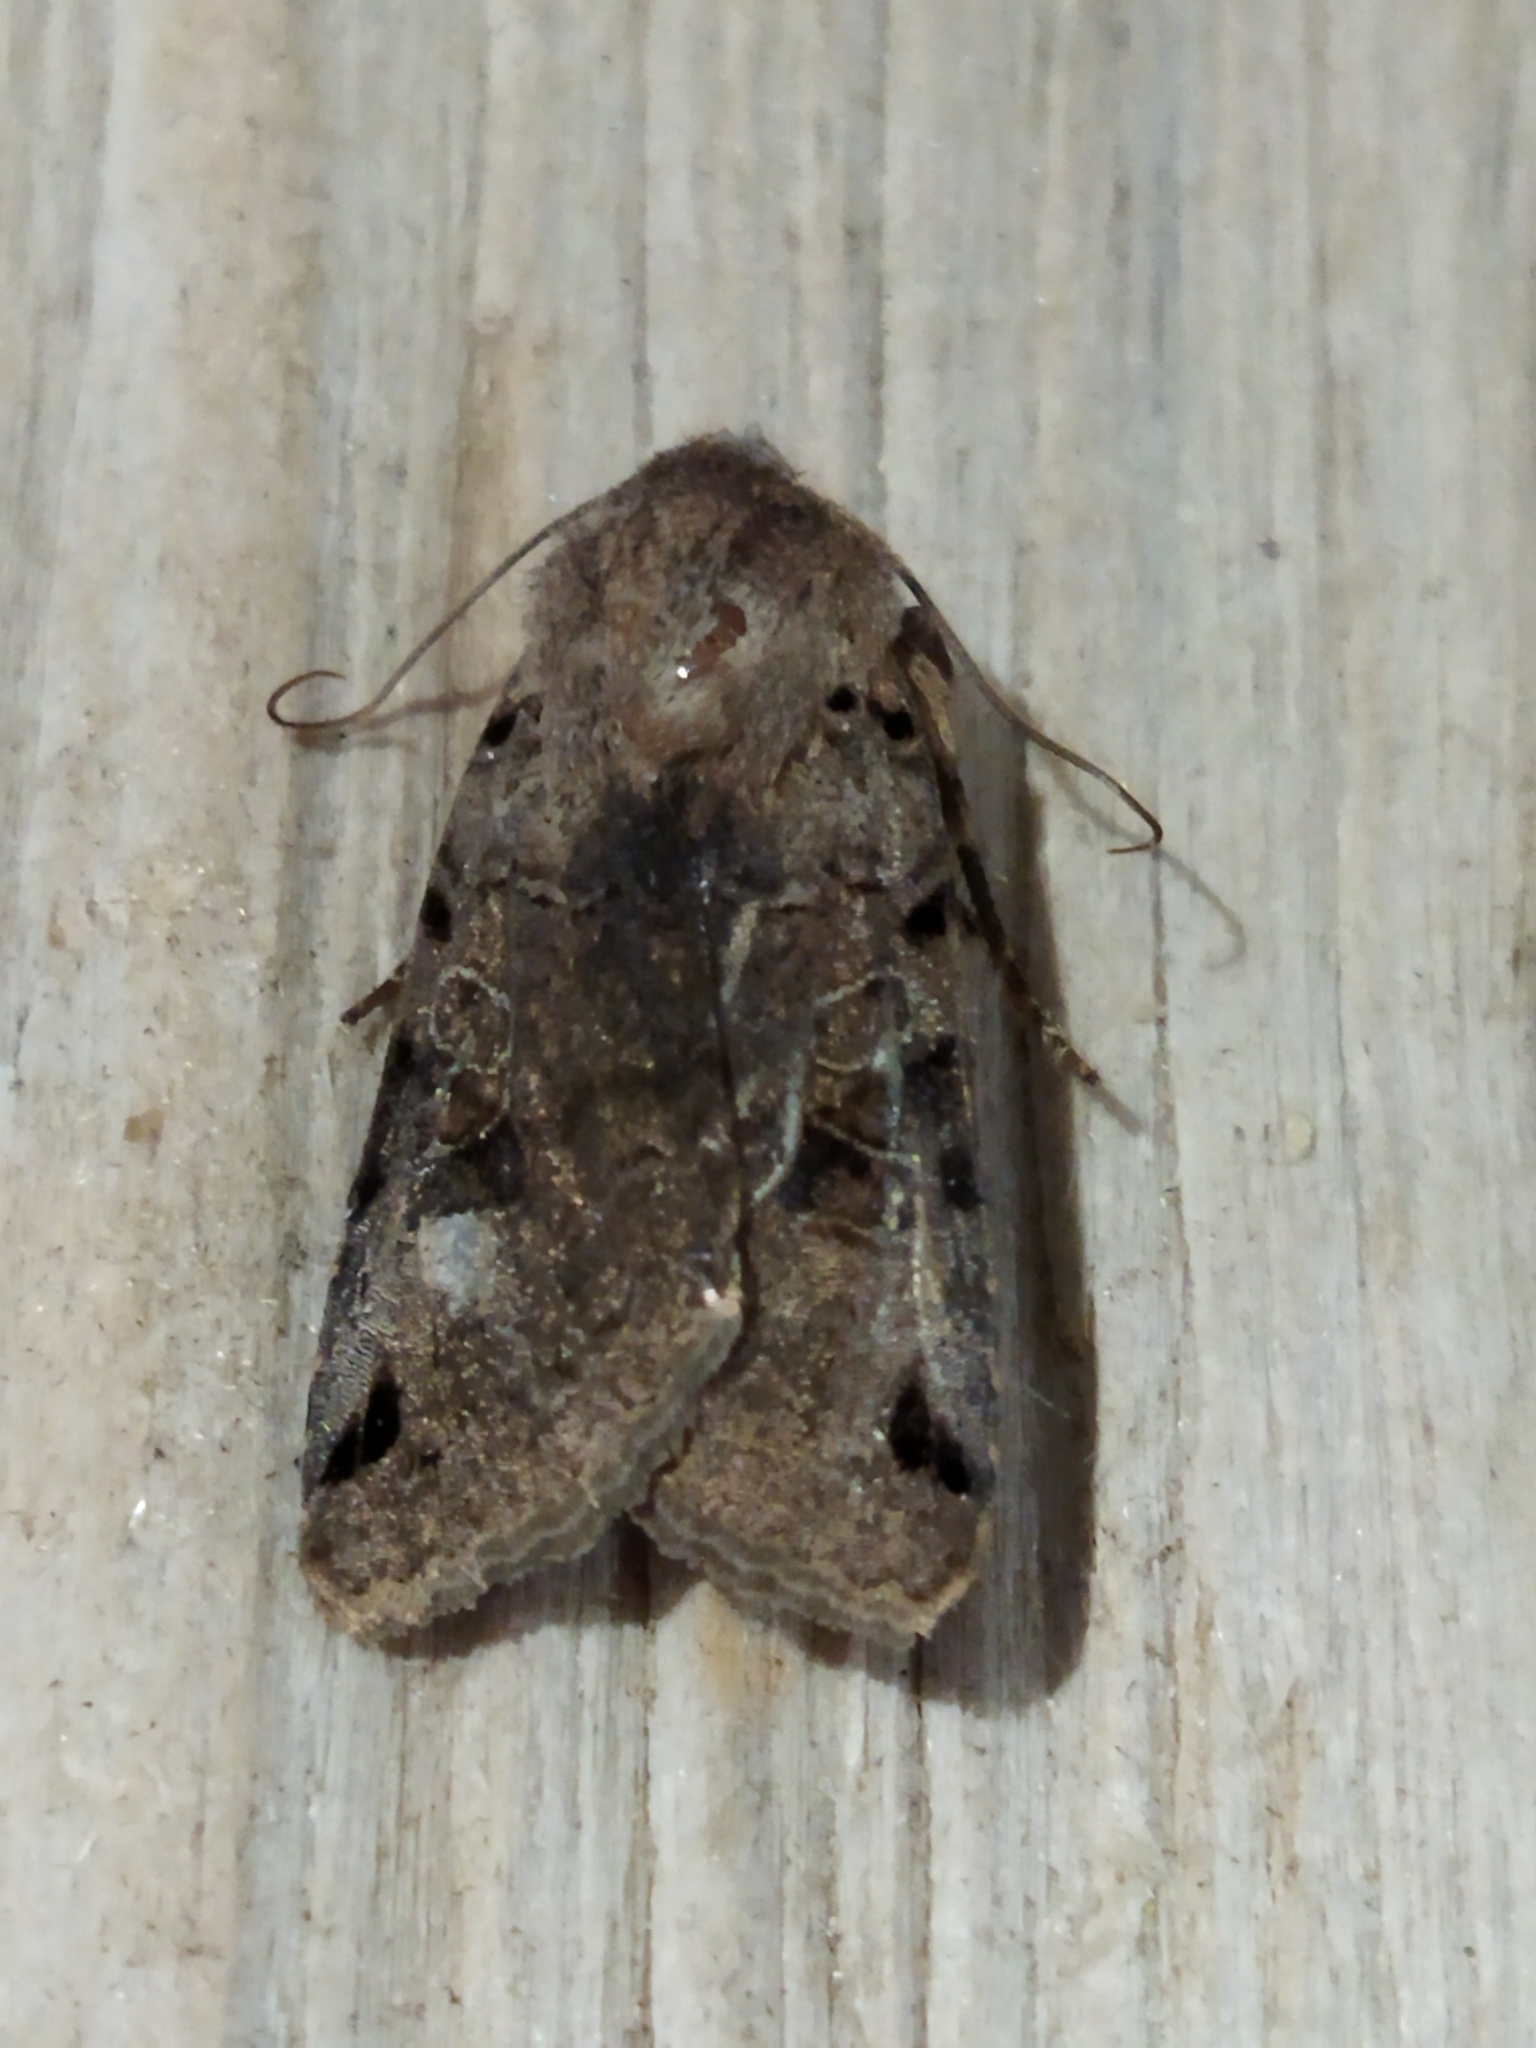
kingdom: Animalia
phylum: Arthropoda
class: Insecta
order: Lepidoptera
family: Noctuidae
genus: Agrochola
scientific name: Agrochola litura
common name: Brown-spot pinion
